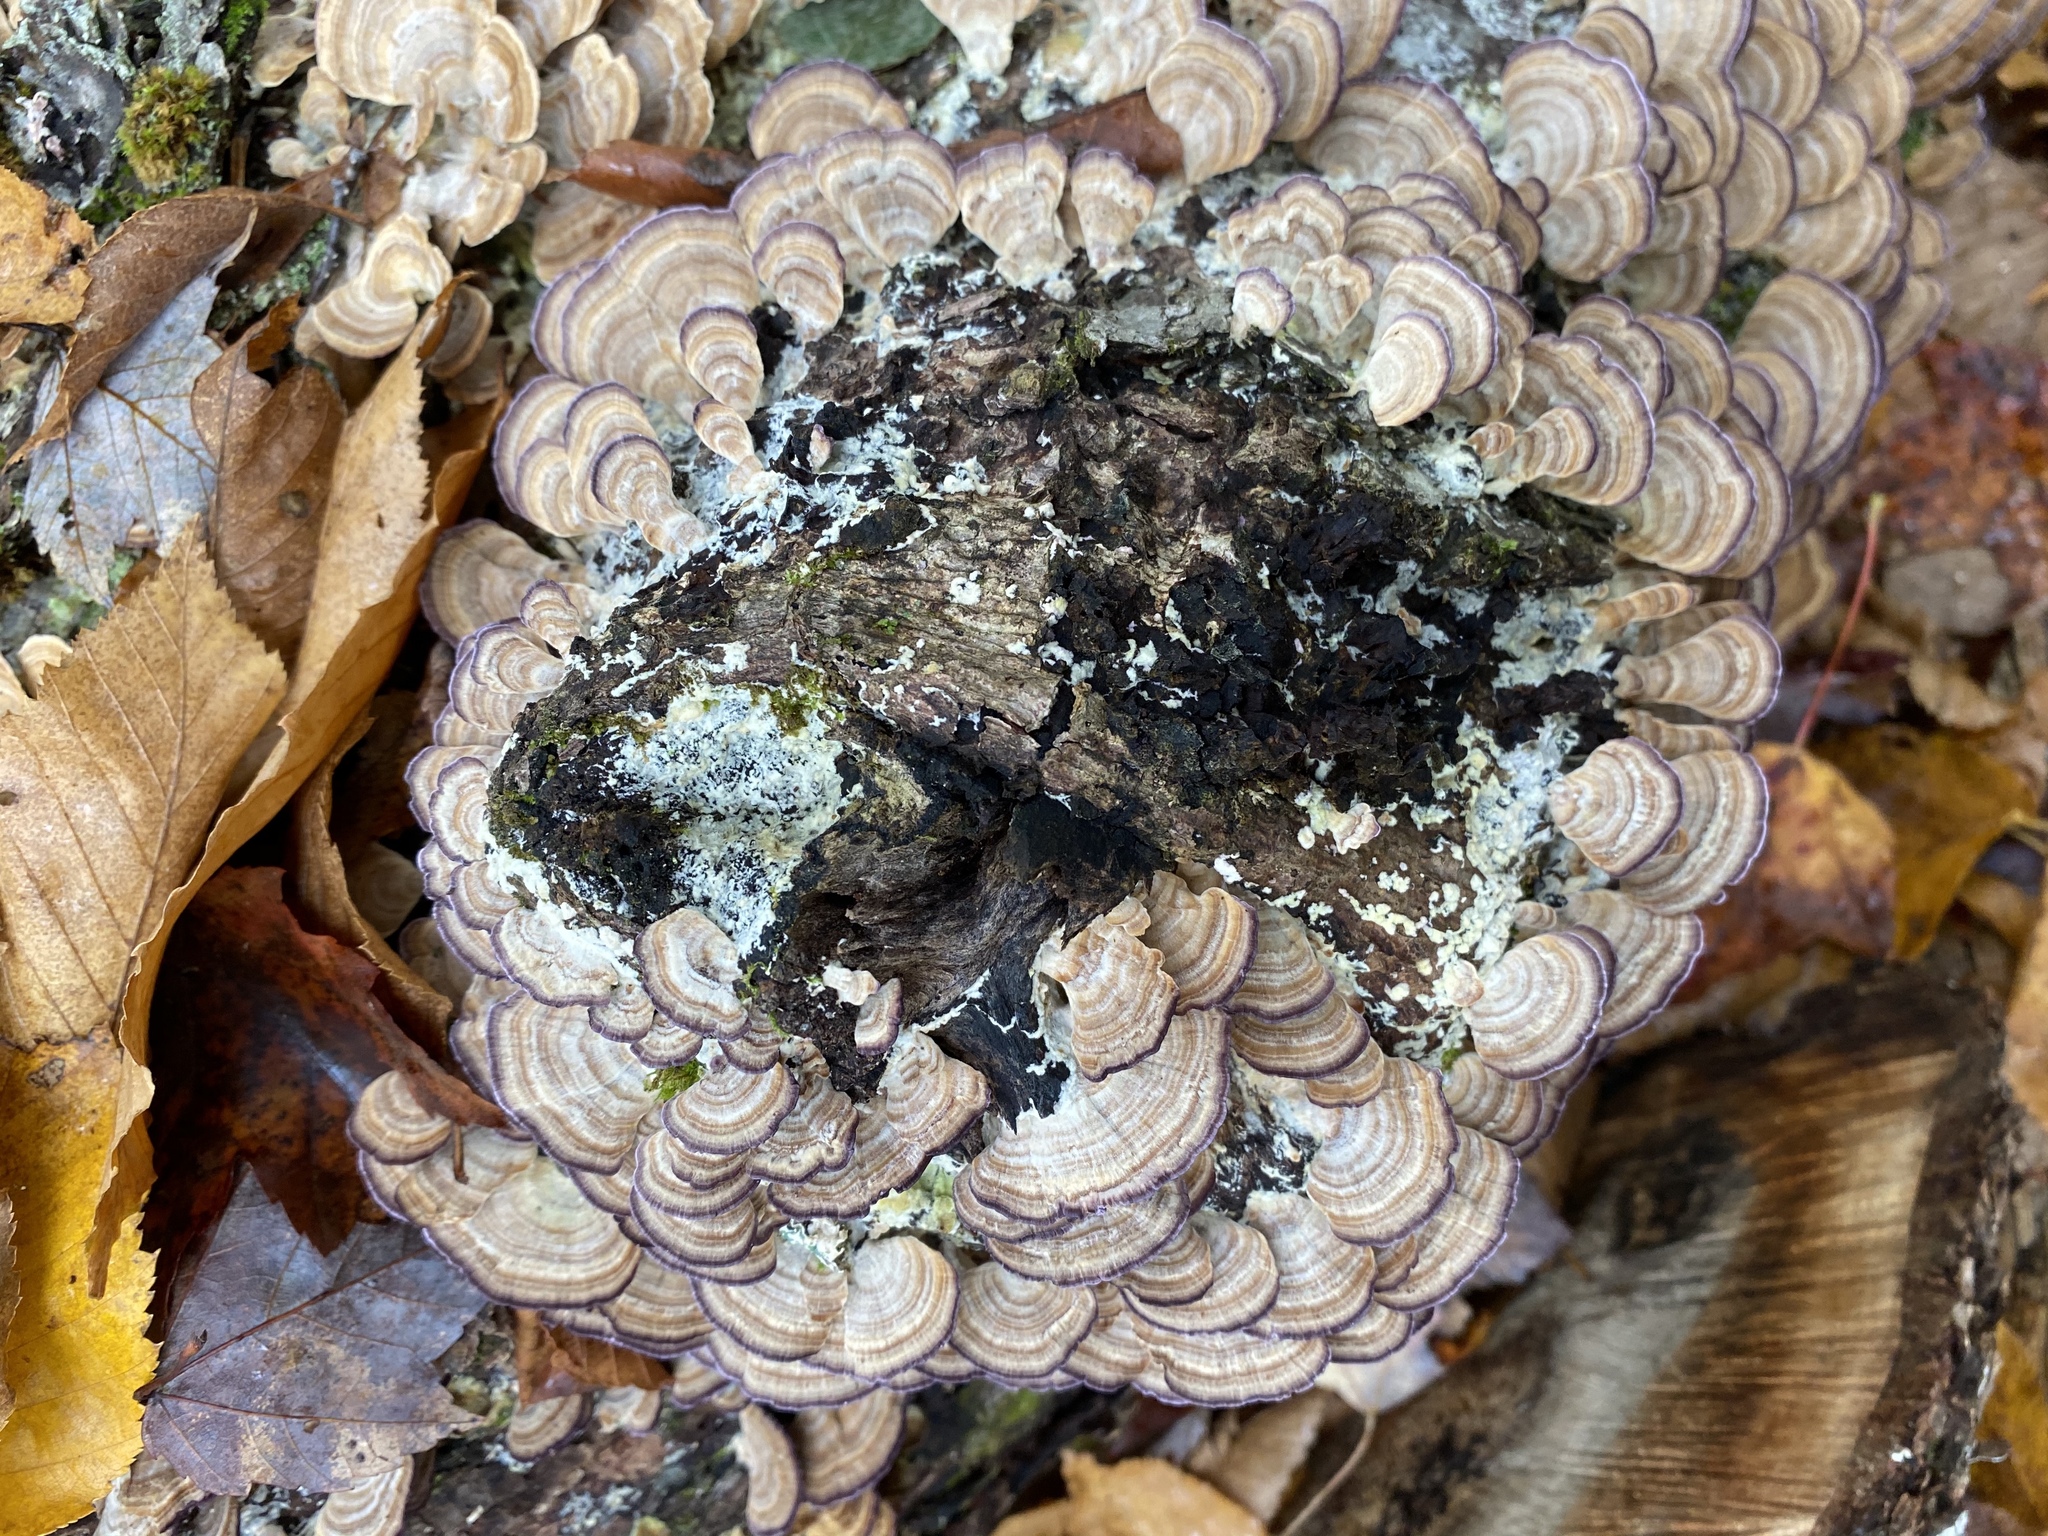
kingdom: Fungi
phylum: Basidiomycota
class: Agaricomycetes
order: Hymenochaetales
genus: Trichaptum
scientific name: Trichaptum biforme
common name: Violet-toothed polypore
